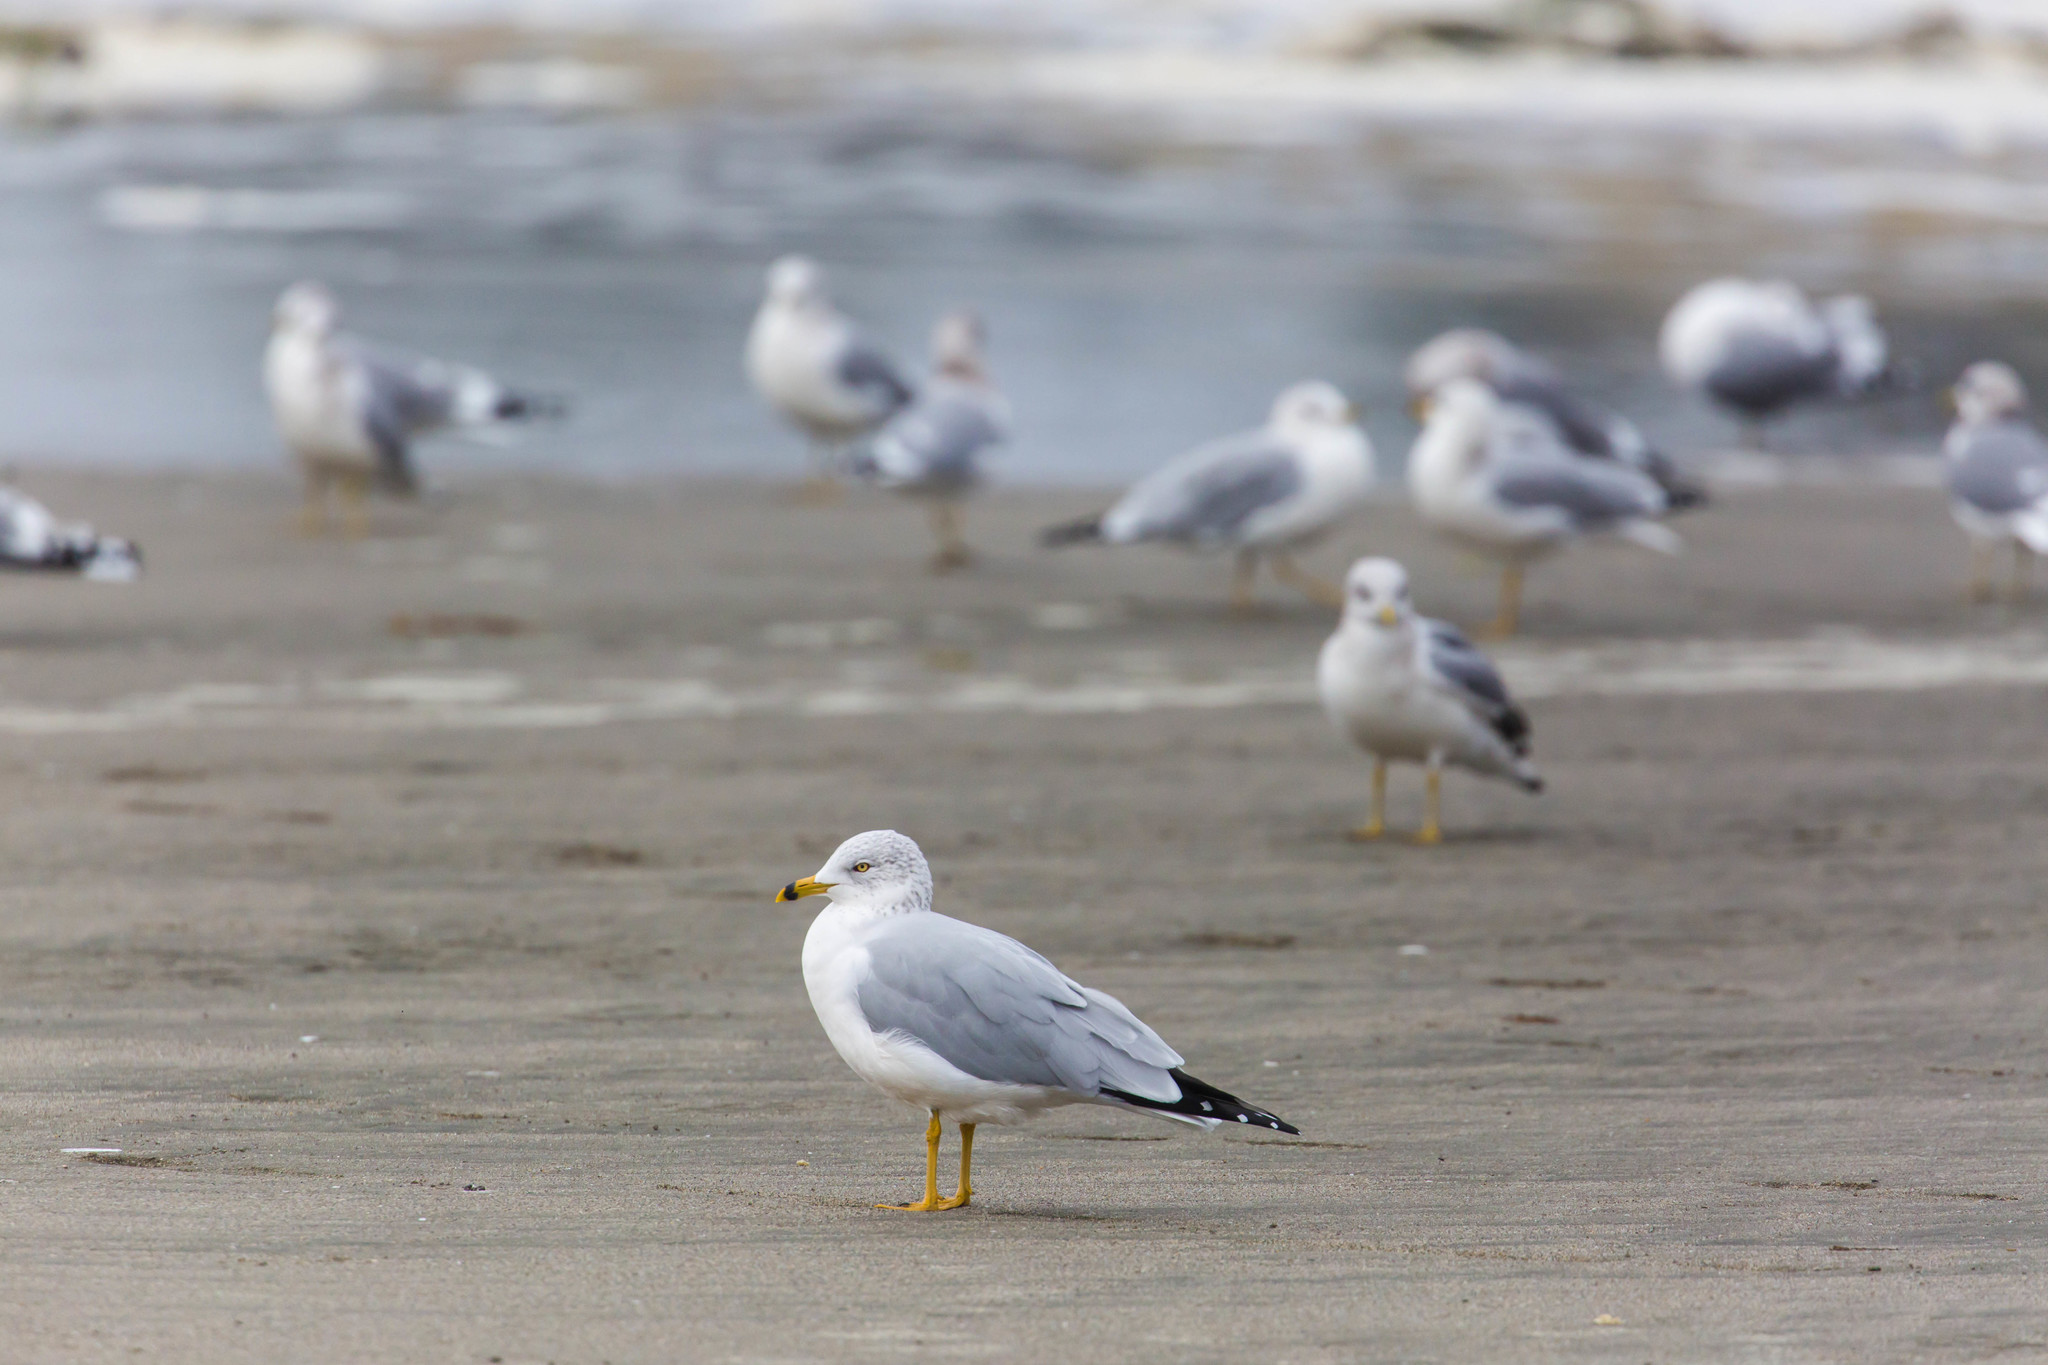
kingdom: Animalia
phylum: Chordata
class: Aves
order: Charadriiformes
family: Laridae
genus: Larus
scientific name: Larus delawarensis
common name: Ring-billed gull
